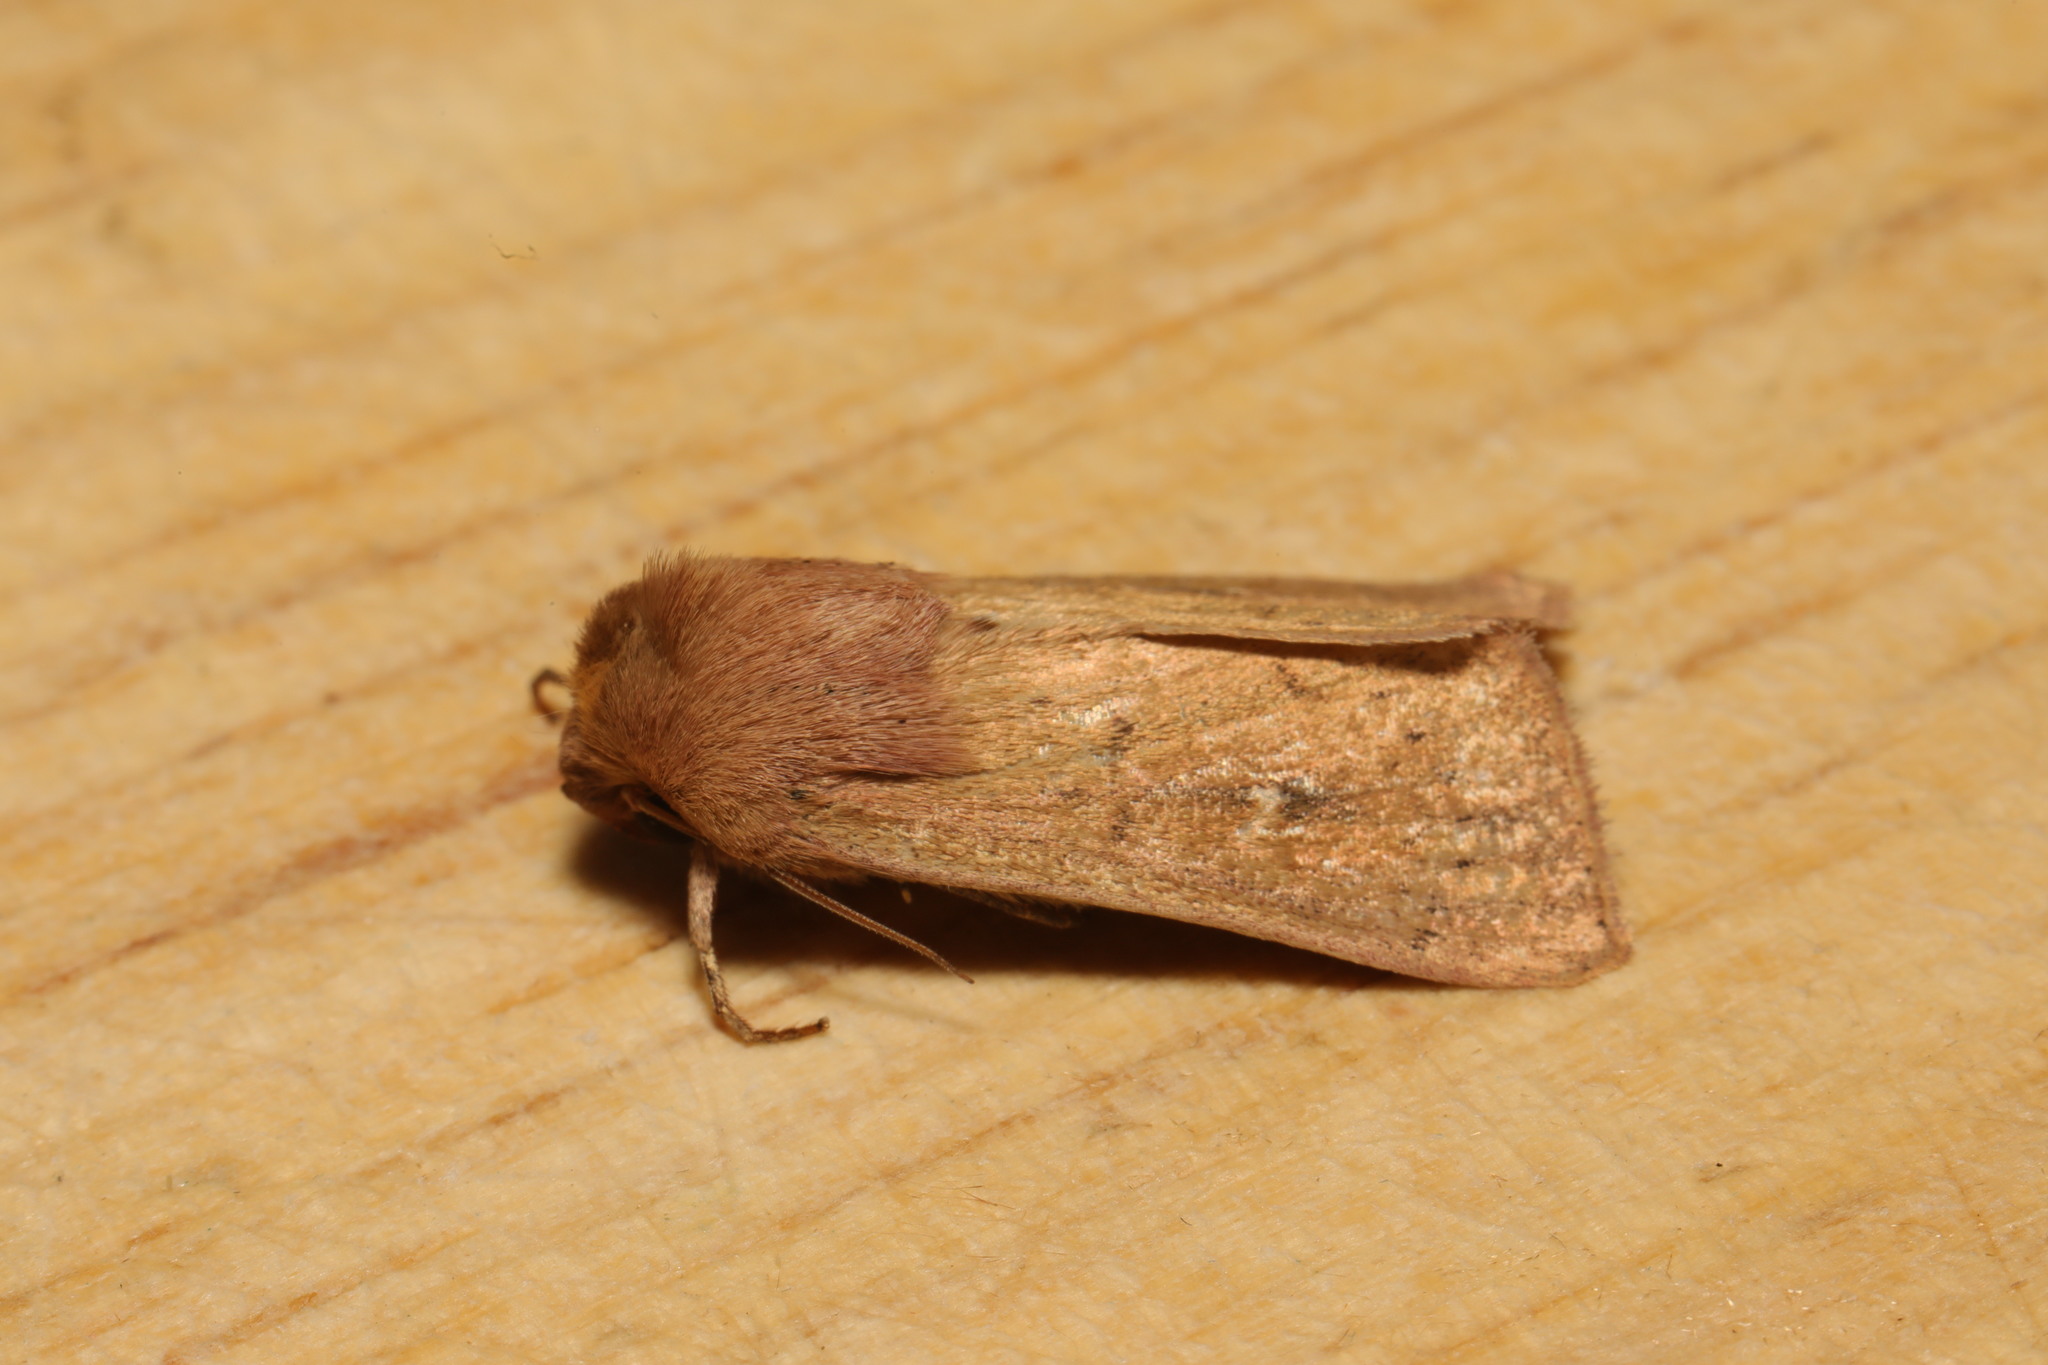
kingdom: Animalia
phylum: Arthropoda
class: Insecta
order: Lepidoptera
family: Noctuidae
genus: Mythimna
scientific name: Mythimna ferrago
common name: Clay
